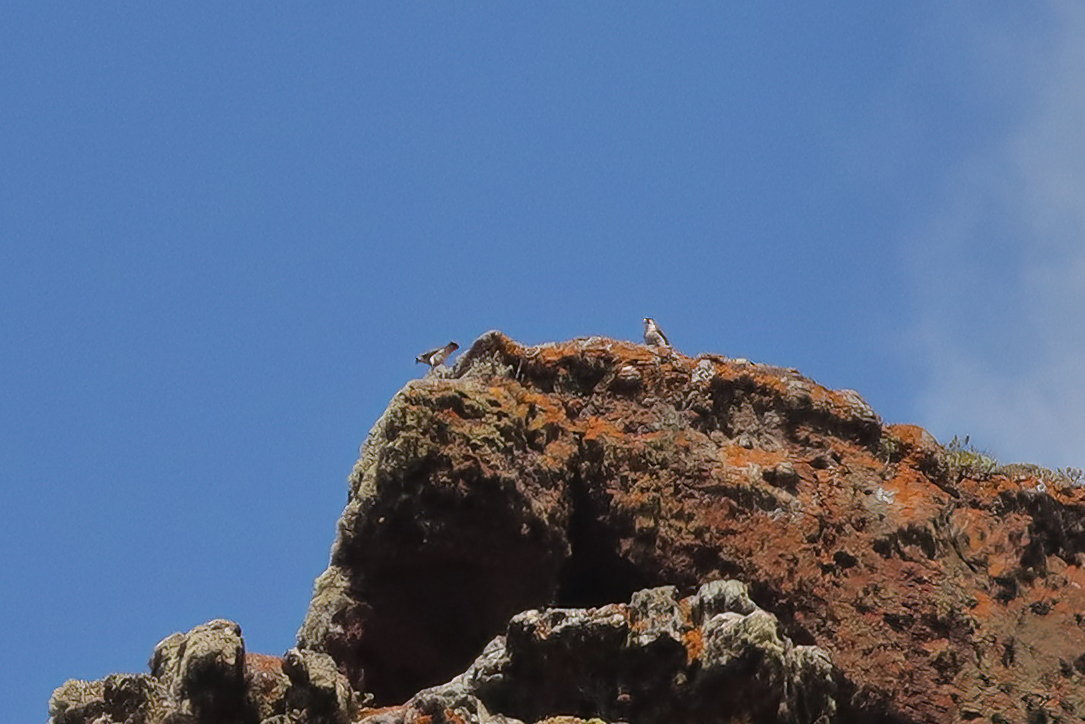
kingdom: Animalia
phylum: Chordata
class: Aves
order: Falconiformes
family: Falconidae
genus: Falco
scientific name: Falco peregrinus
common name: Peregrine falcon
